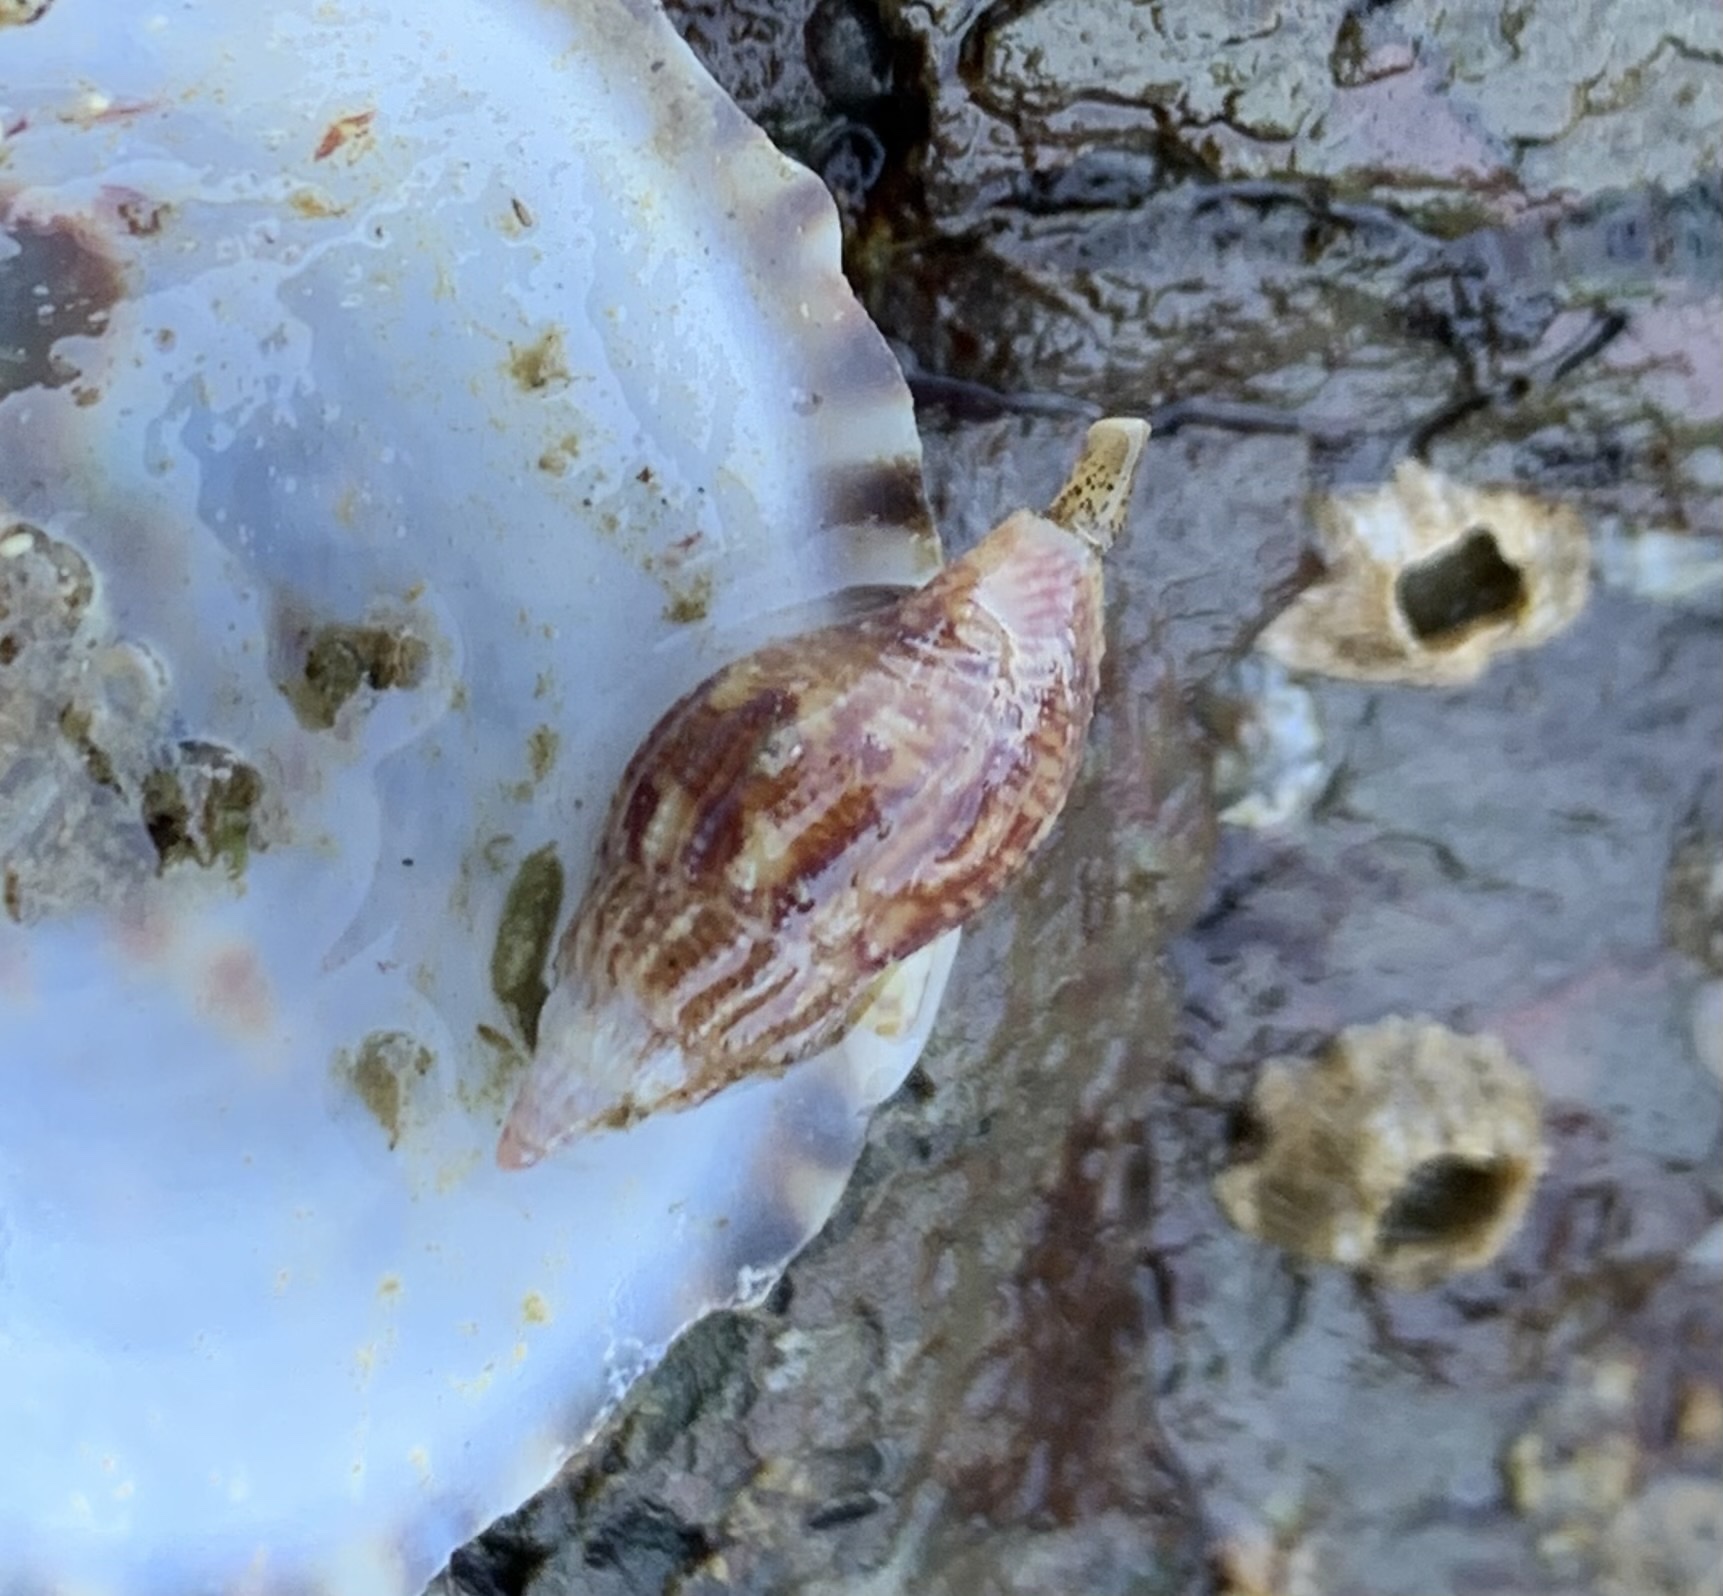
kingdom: Animalia
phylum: Mollusca
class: Gastropoda
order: Neogastropoda
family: Columbellidae
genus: Amphissa
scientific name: Amphissa columbiana
